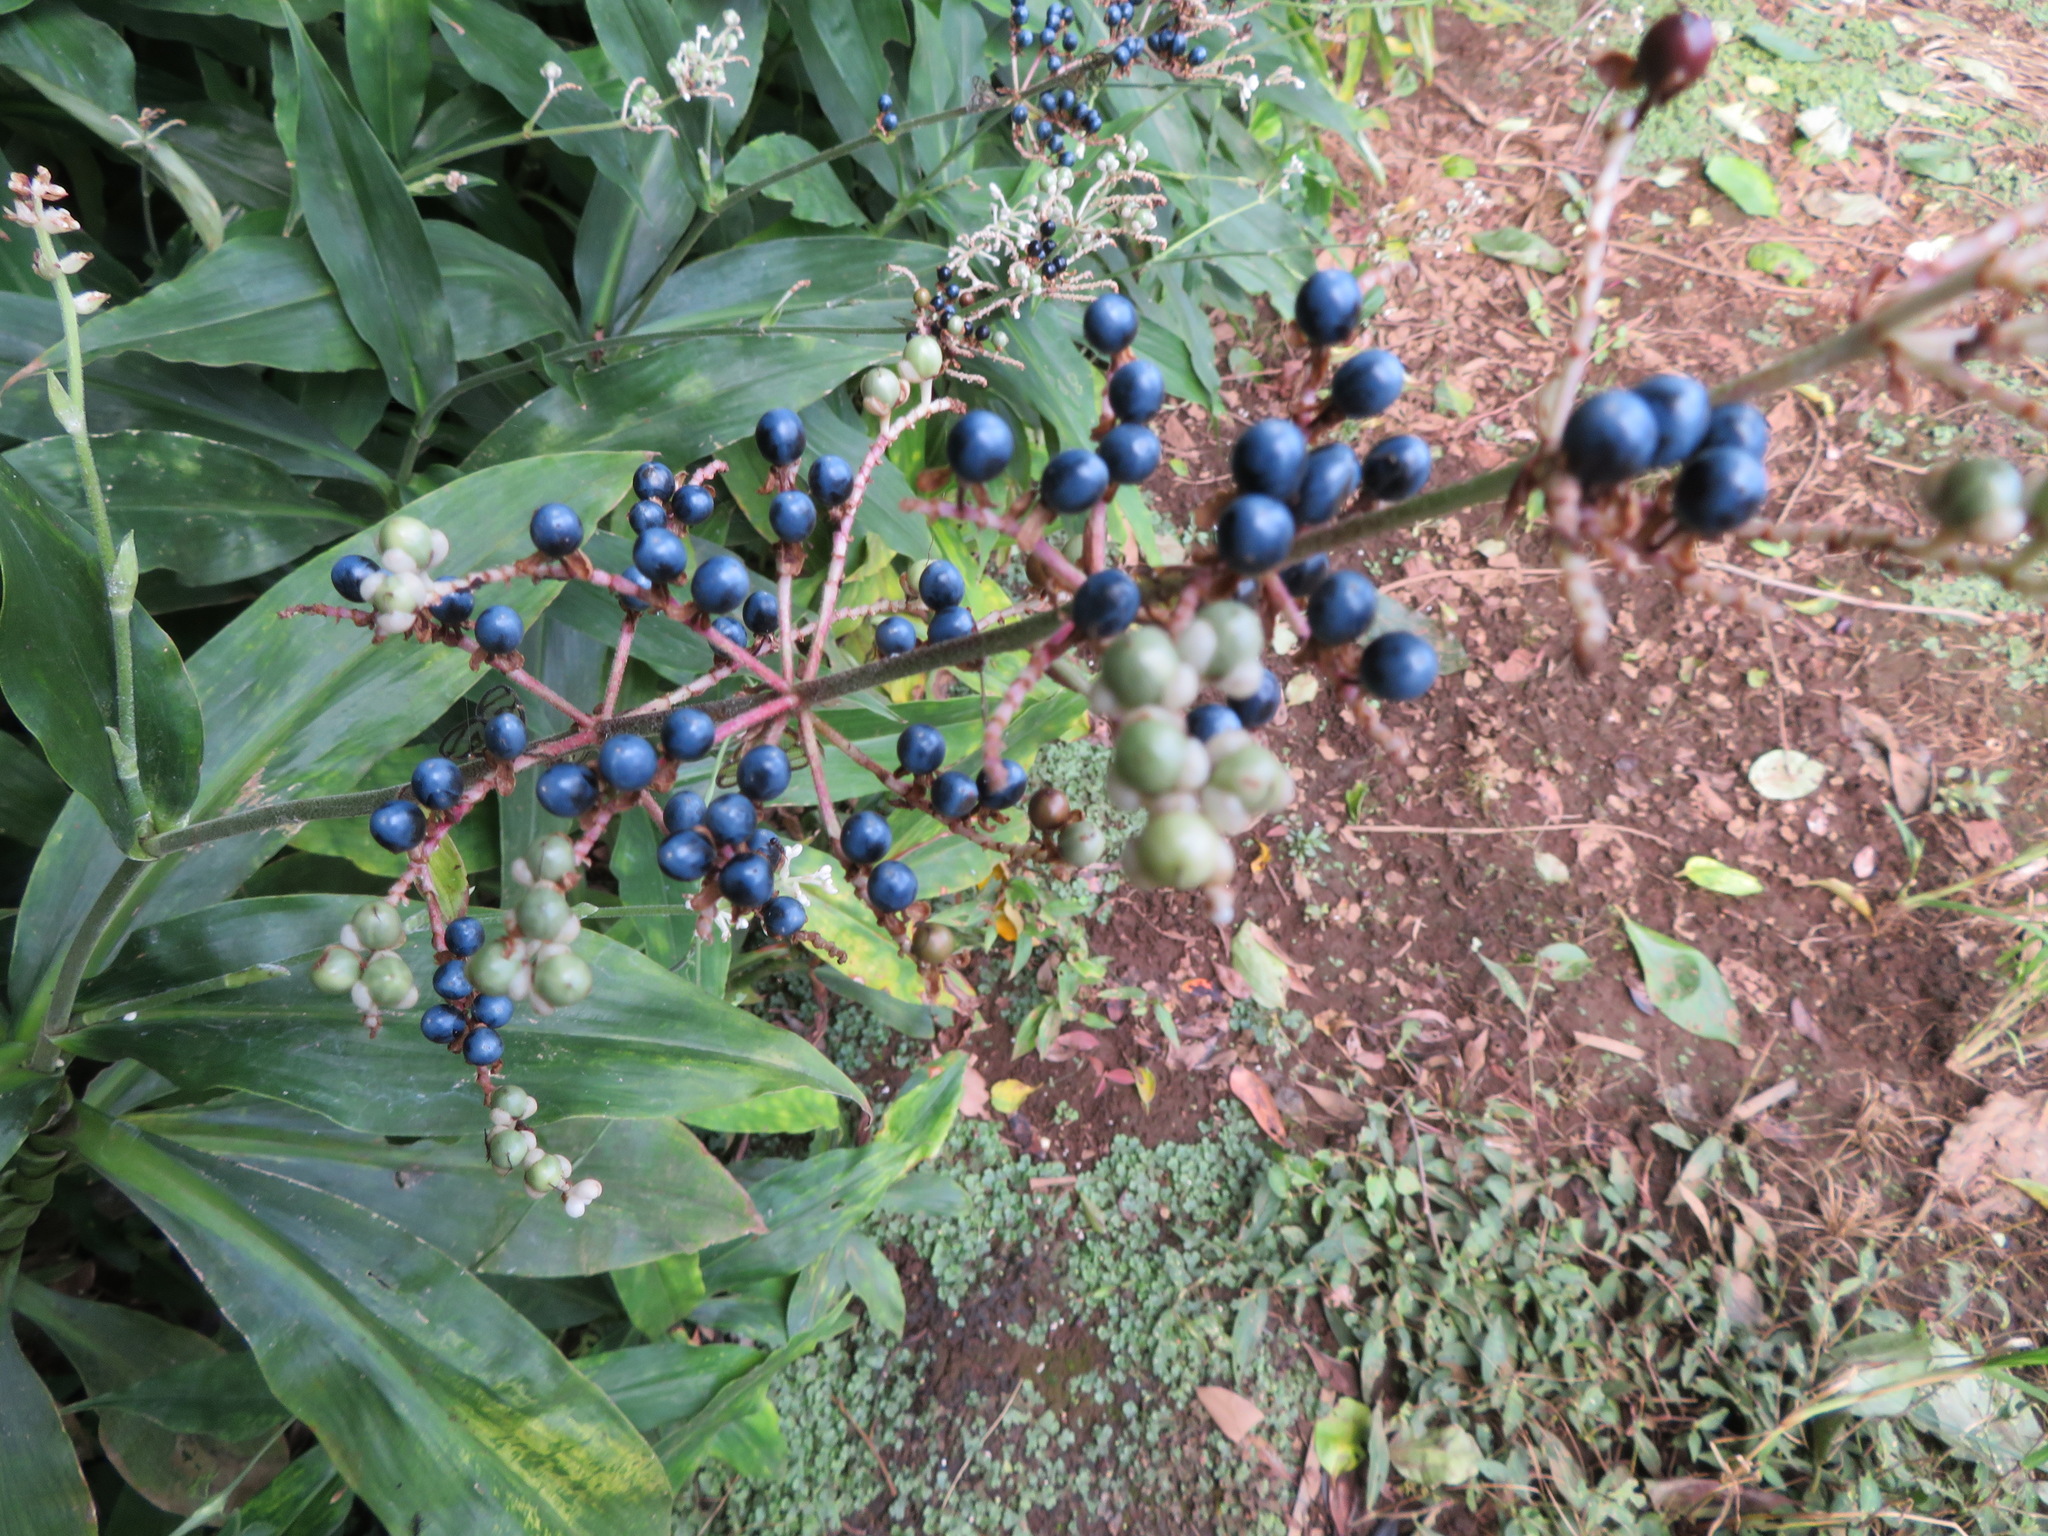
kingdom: Plantae
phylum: Tracheophyta
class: Liliopsida
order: Commelinales
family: Commelinaceae
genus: Pollia
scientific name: Pollia japonica
